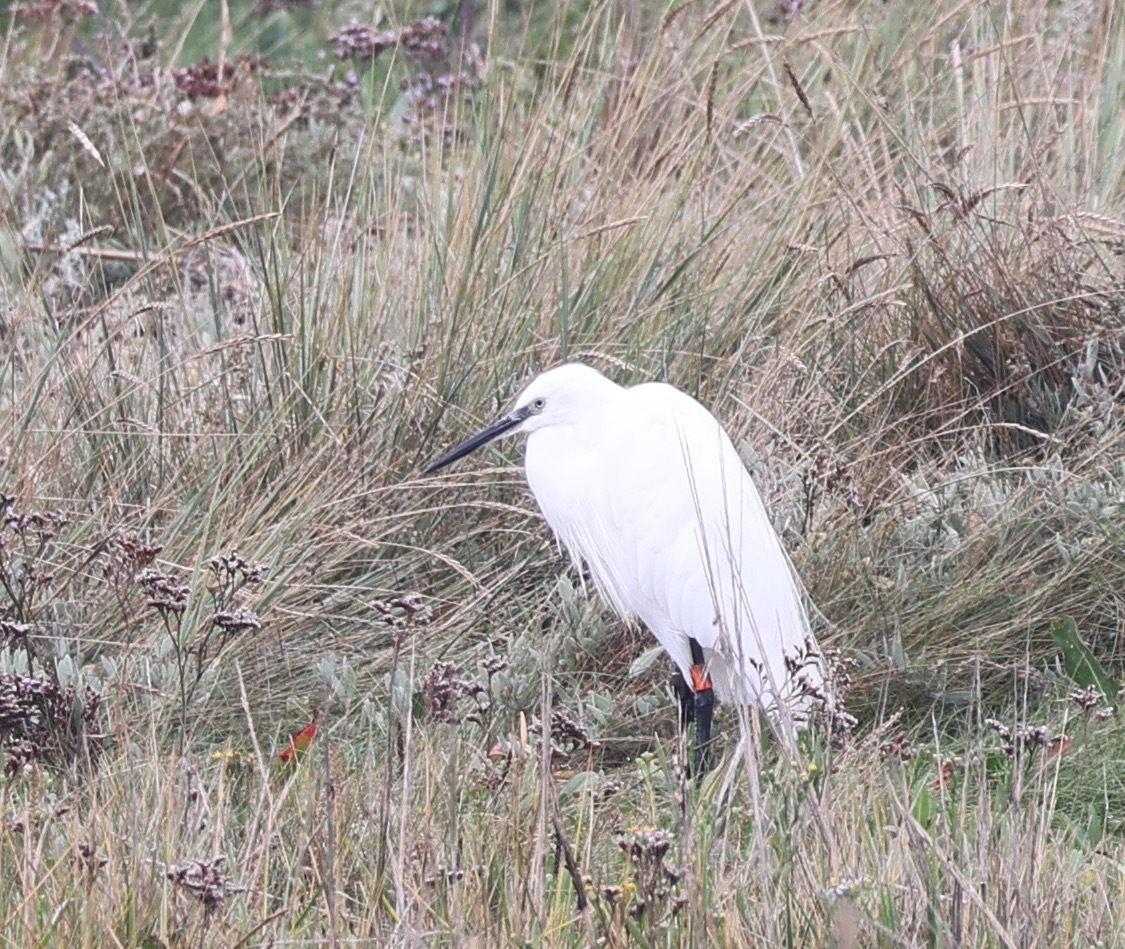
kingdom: Animalia
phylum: Chordata
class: Aves
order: Pelecaniformes
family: Ardeidae
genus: Egretta
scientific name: Egretta garzetta
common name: Little egret
